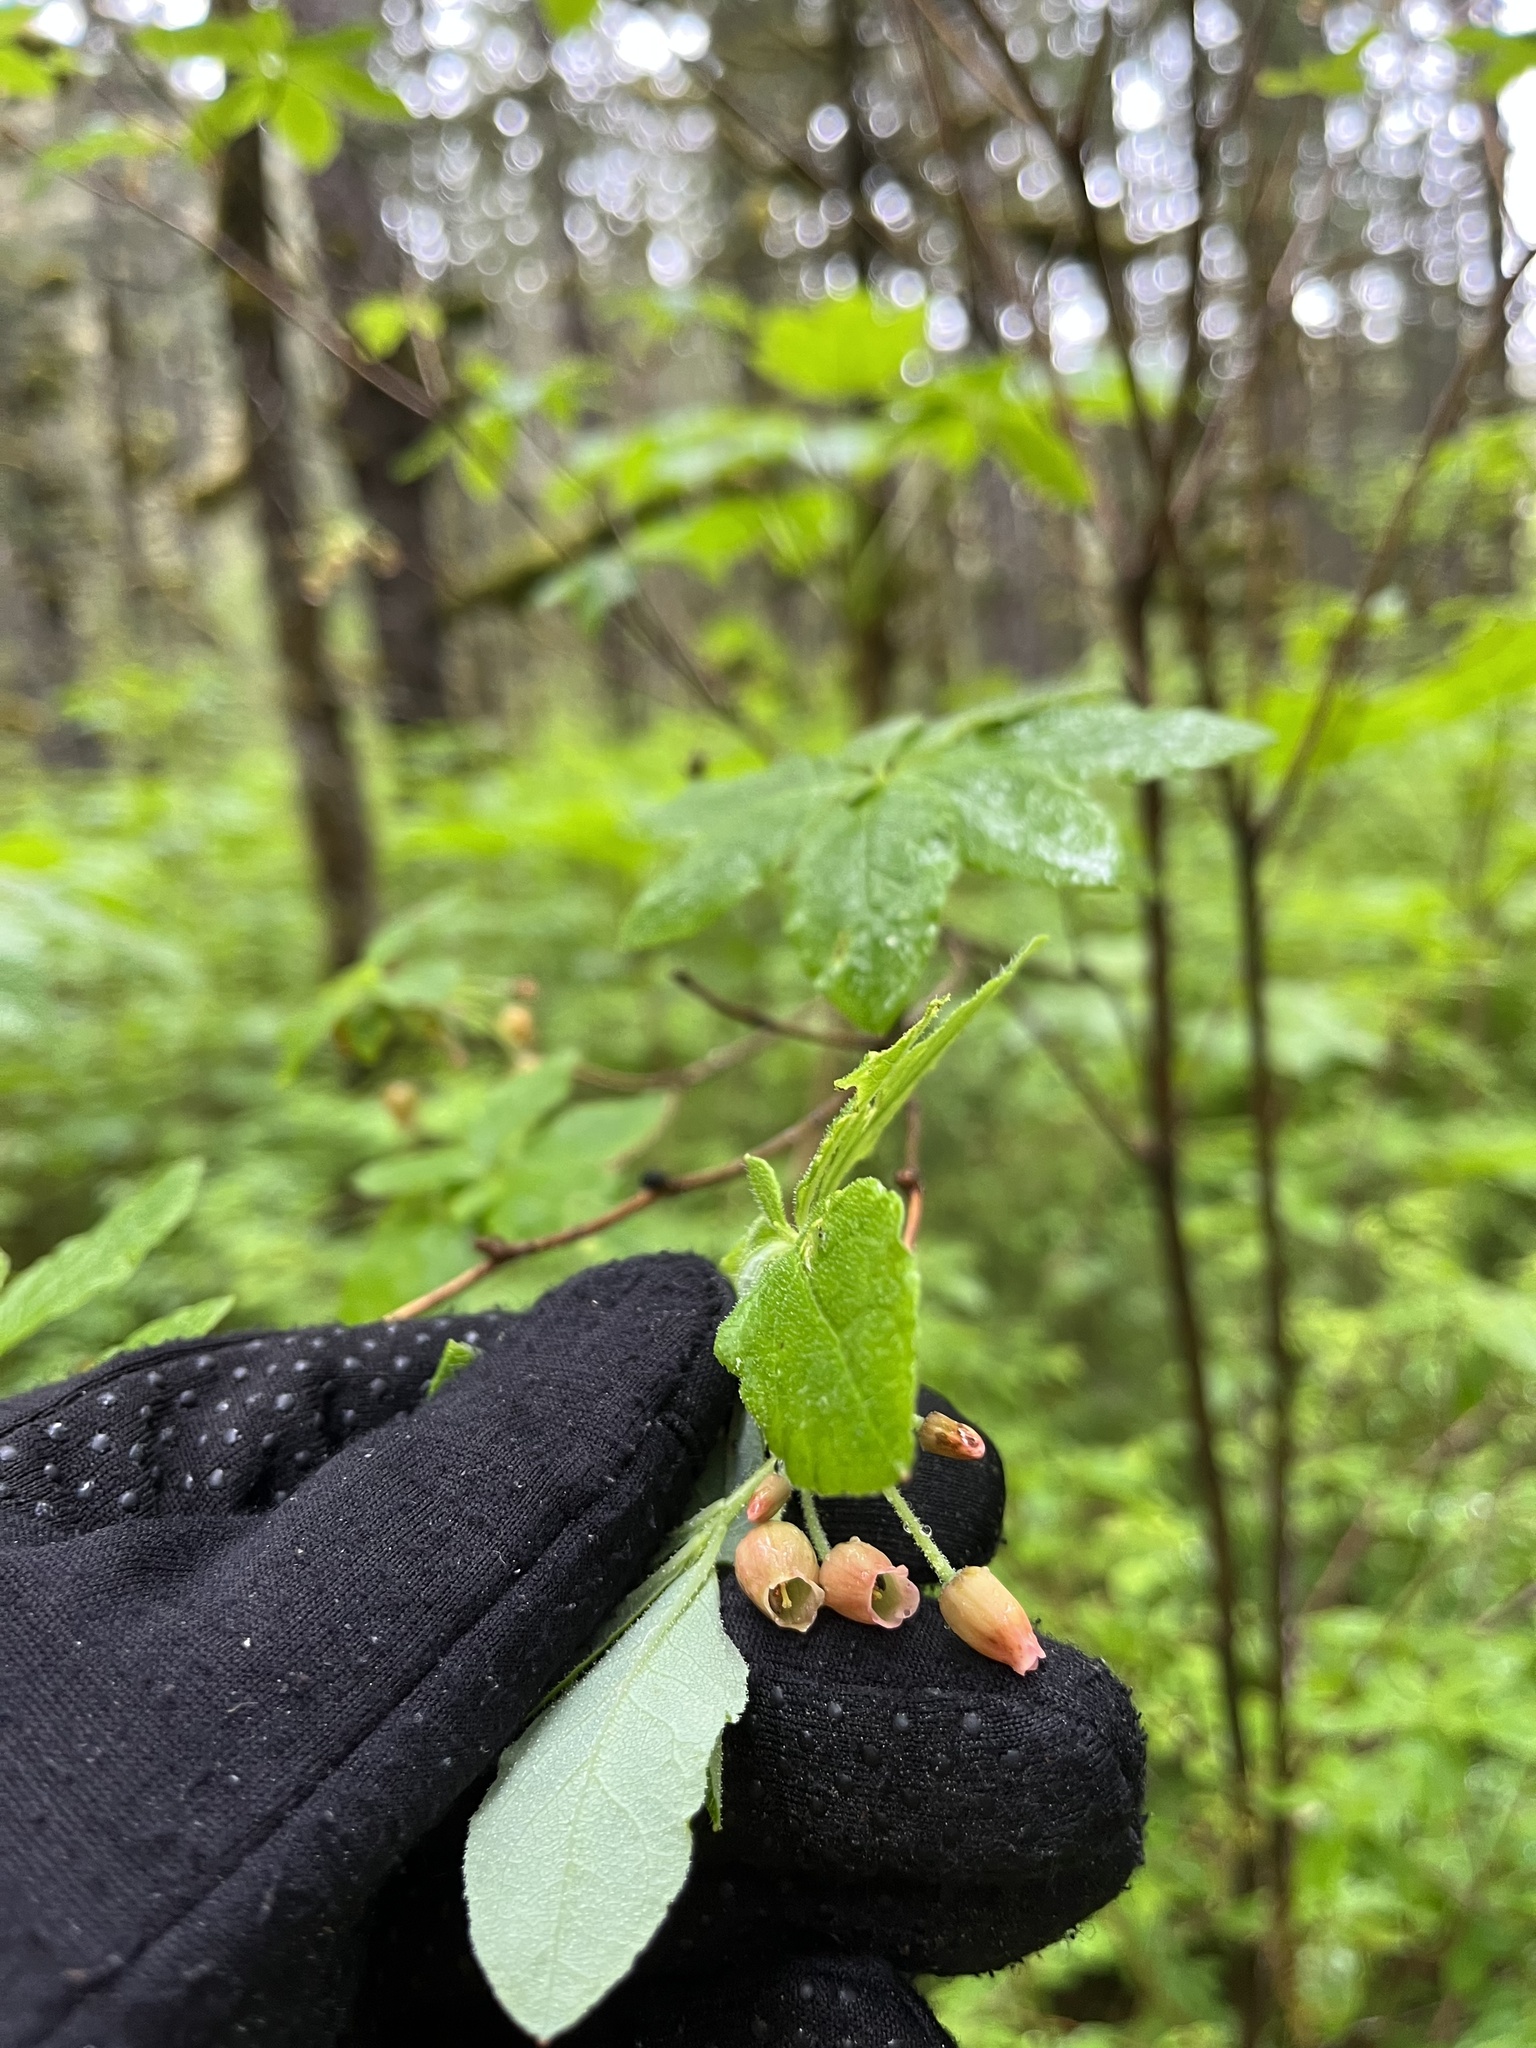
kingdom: Plantae
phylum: Tracheophyta
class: Magnoliopsida
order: Ericales
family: Ericaceae
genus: Rhododendron
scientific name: Rhododendron menziesii
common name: Pacific menziesia
